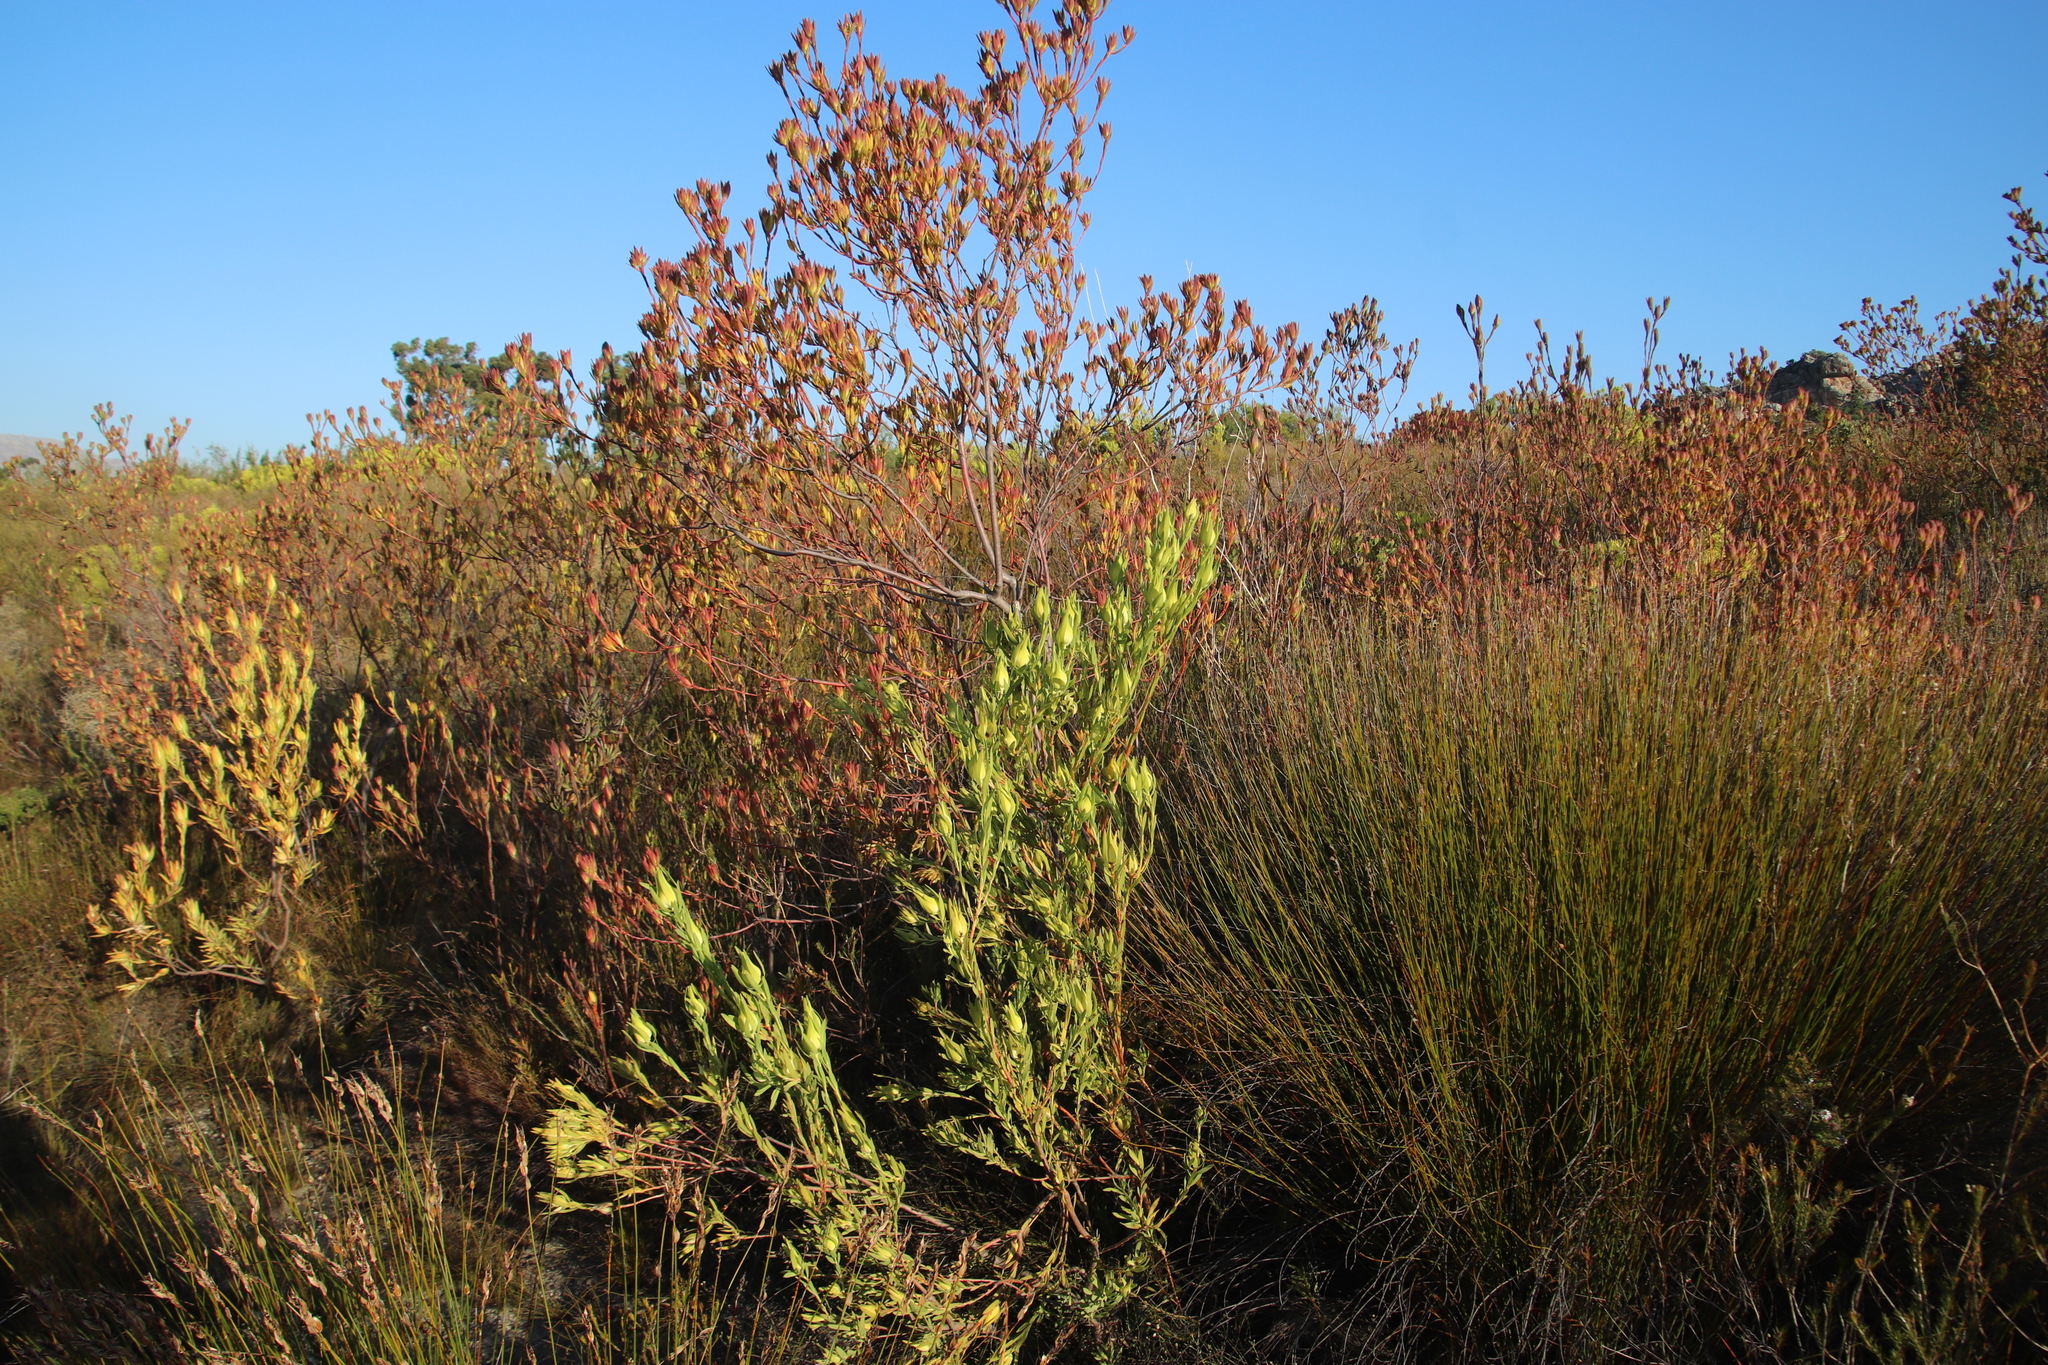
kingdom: Plantae
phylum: Tracheophyta
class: Magnoliopsida
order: Proteales
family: Proteaceae
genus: Leucadendron
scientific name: Leucadendron salignum
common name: Common sunshine conebush
